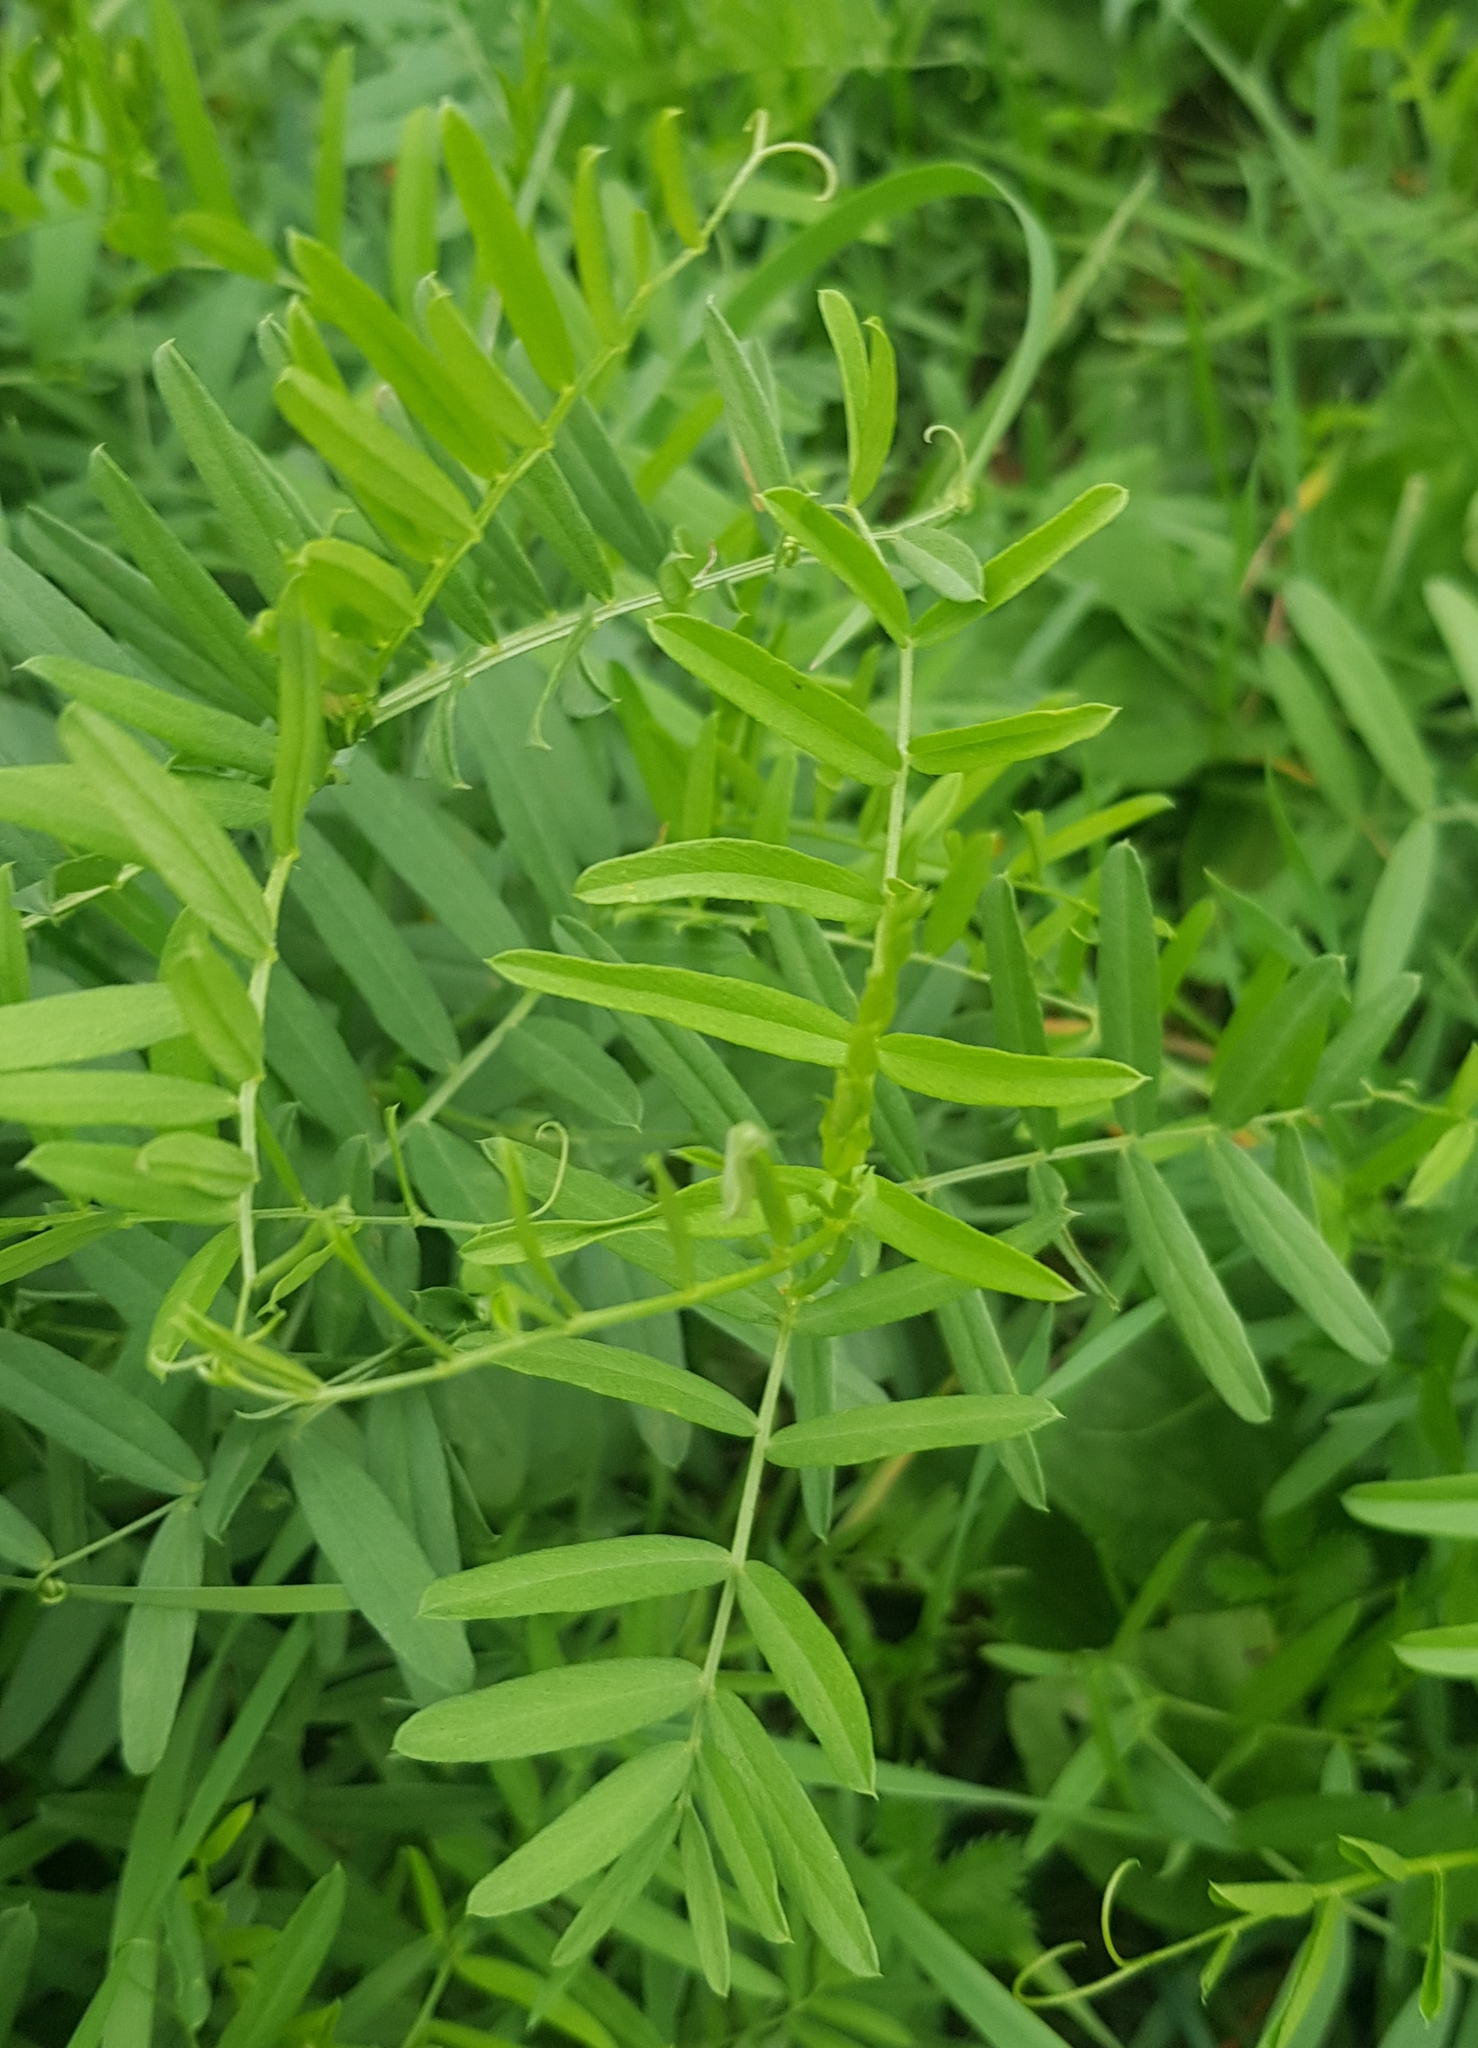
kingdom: Plantae
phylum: Tracheophyta
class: Magnoliopsida
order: Fabales
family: Fabaceae
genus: Vicia
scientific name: Vicia tenuifolia
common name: Fine-leaved vetch
